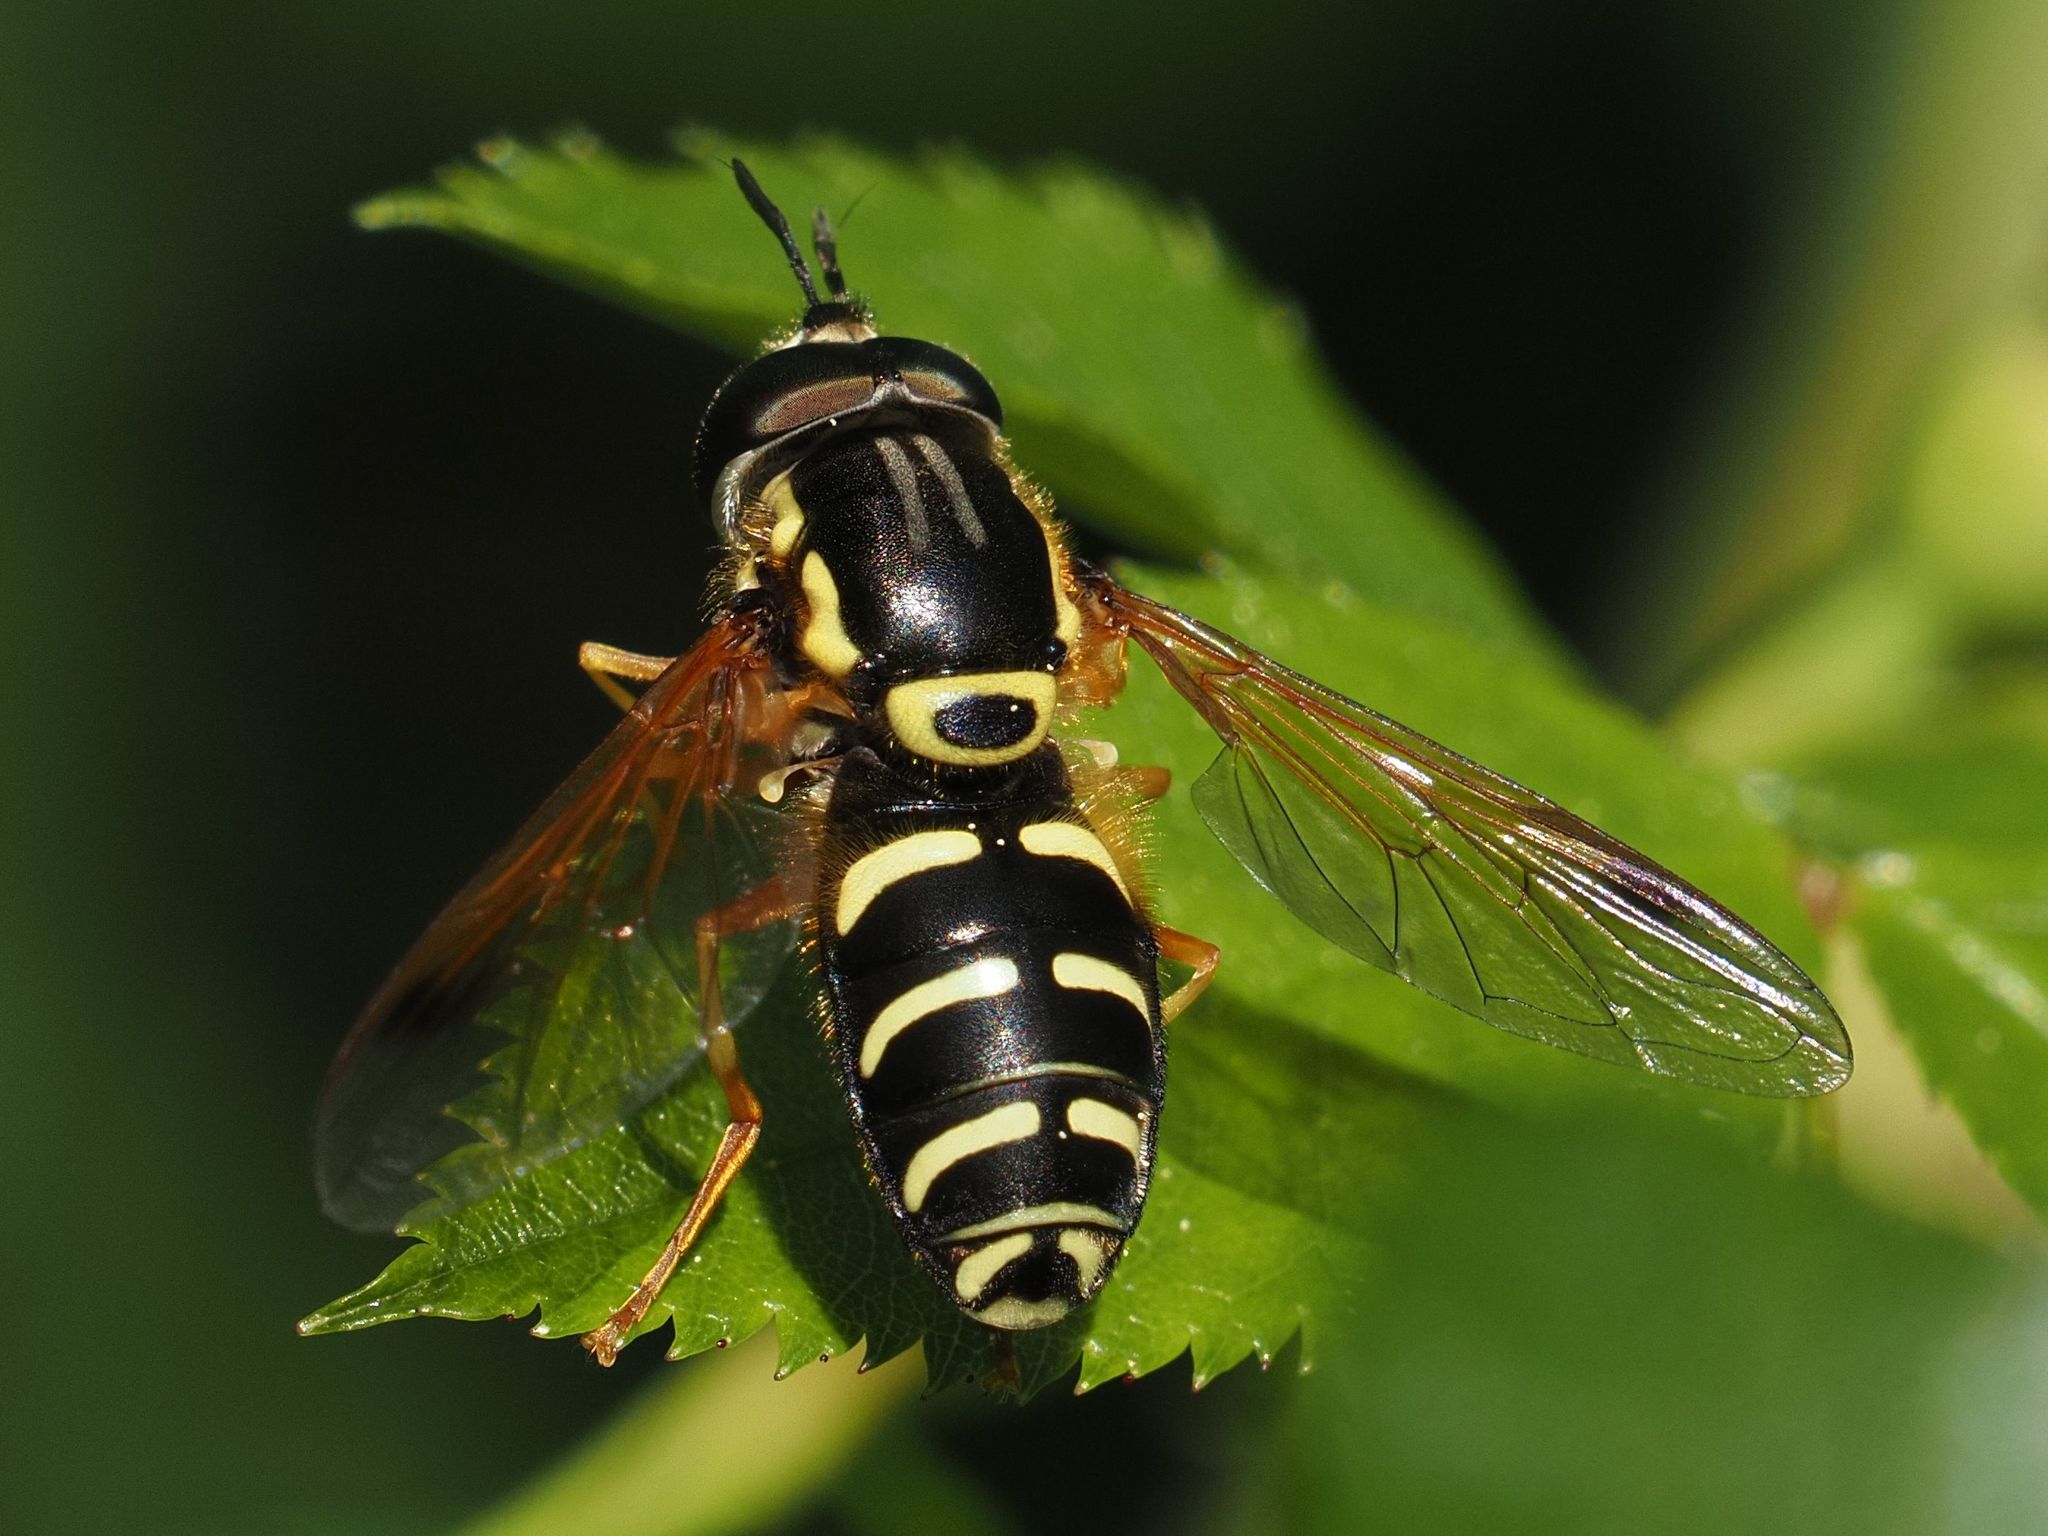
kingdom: Animalia
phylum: Arthropoda
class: Insecta
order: Diptera
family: Syrphidae
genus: Chrysotoxum
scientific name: Chrysotoxum festivum
